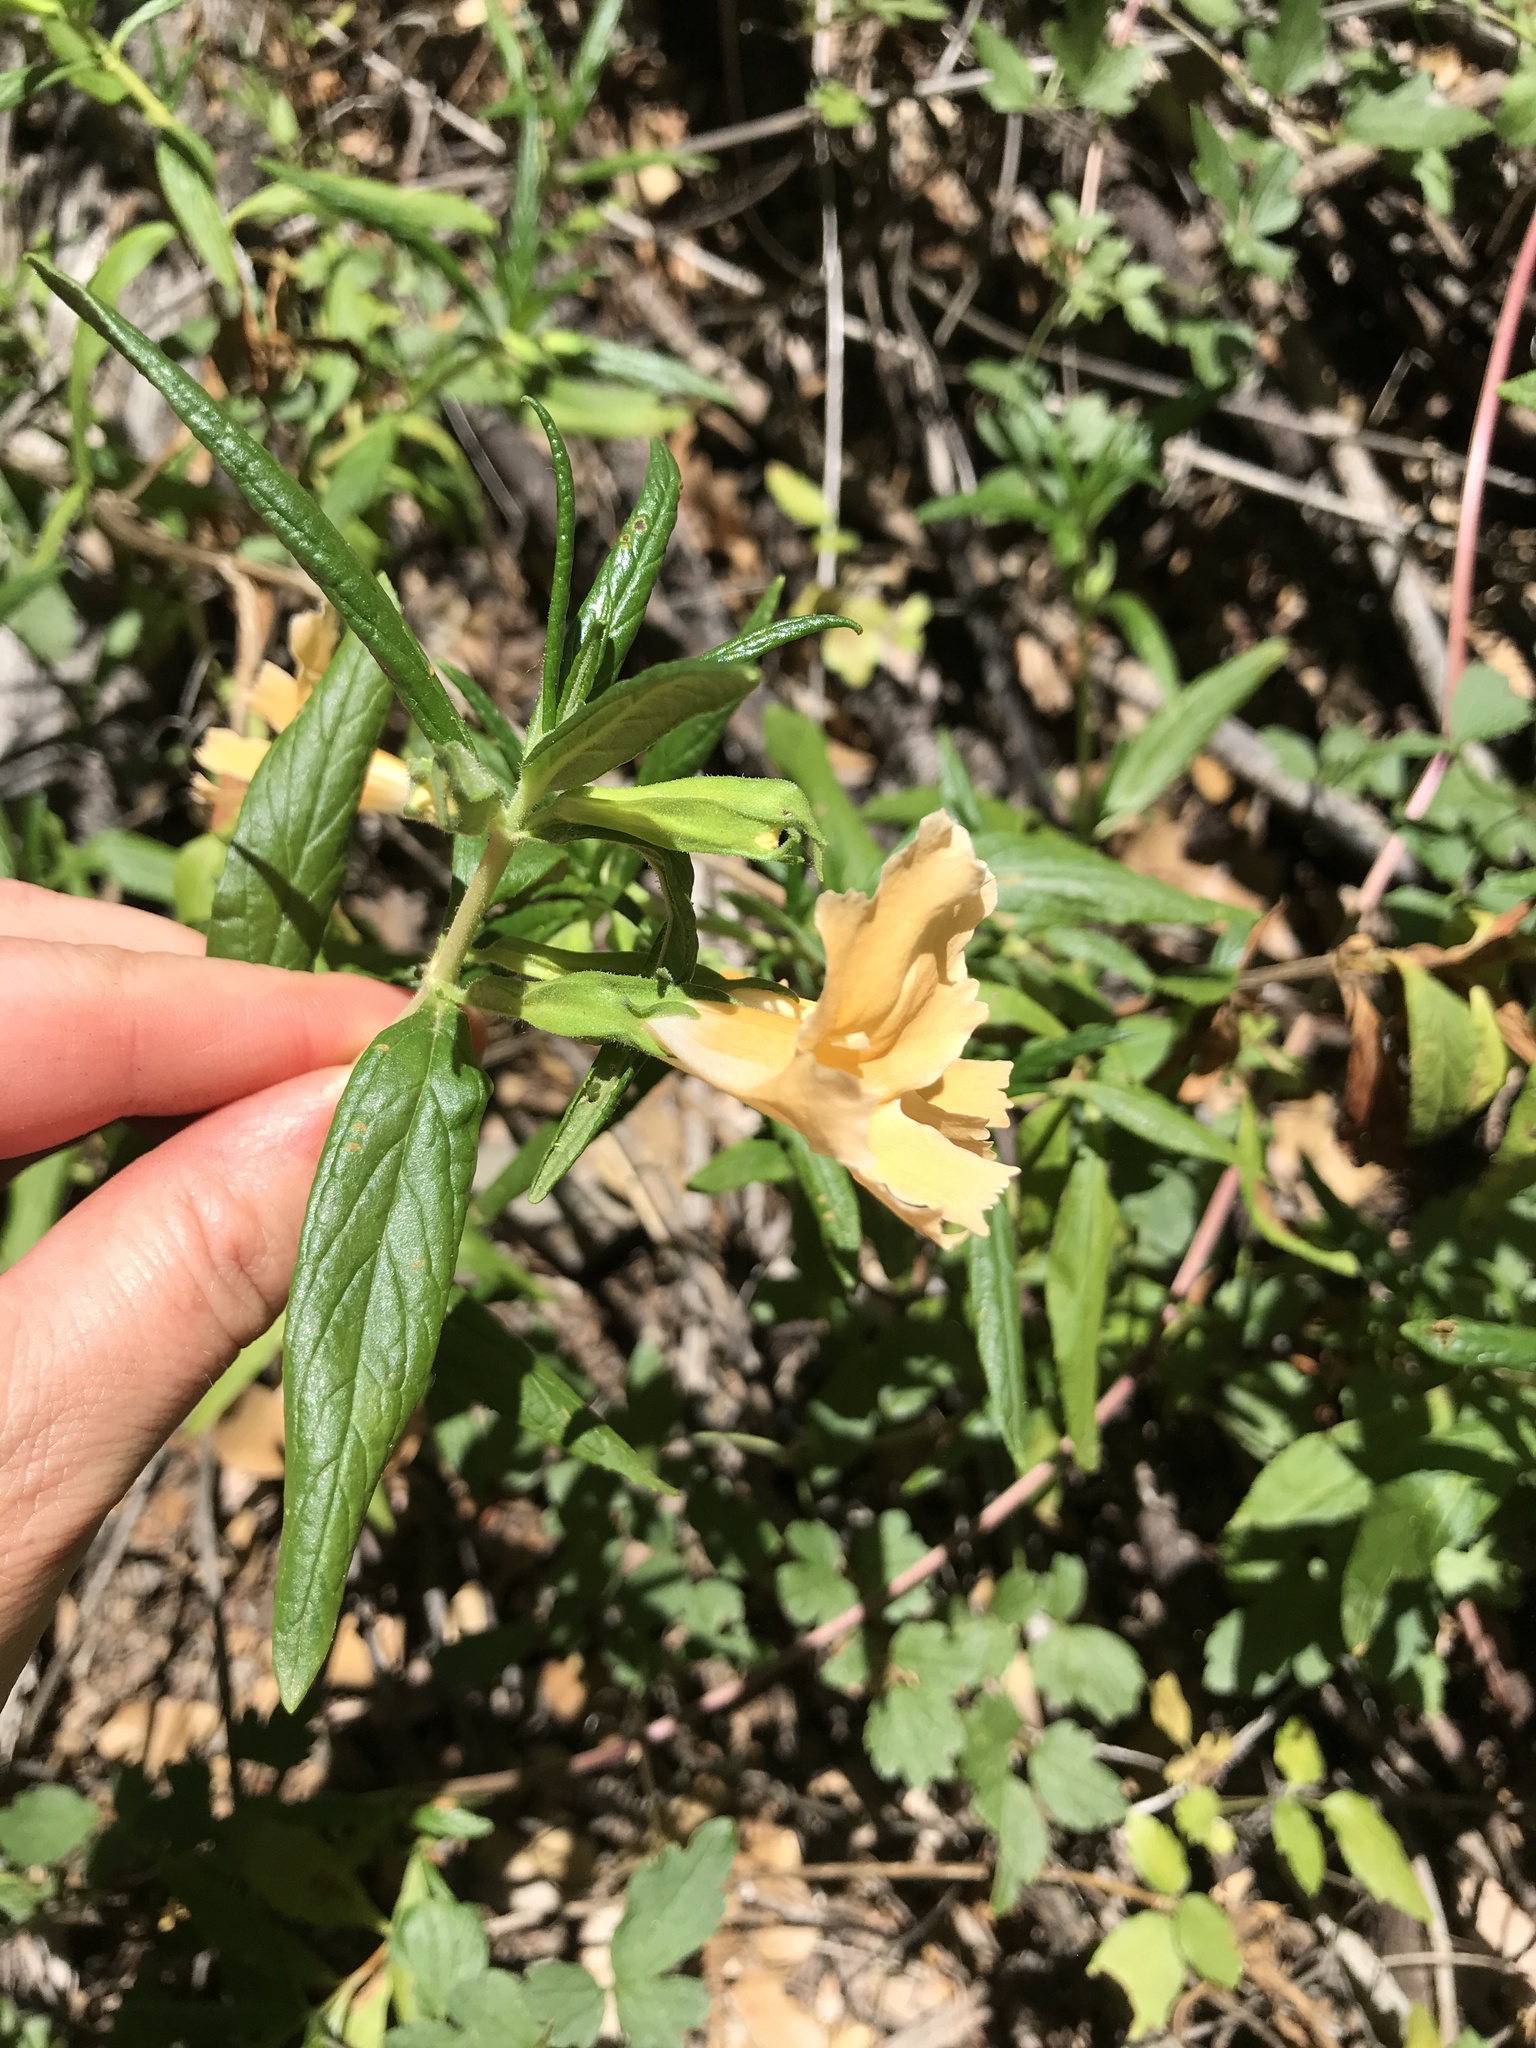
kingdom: Plantae
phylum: Tracheophyta
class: Magnoliopsida
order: Lamiales
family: Phrymaceae
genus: Diplacus
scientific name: Diplacus australis
